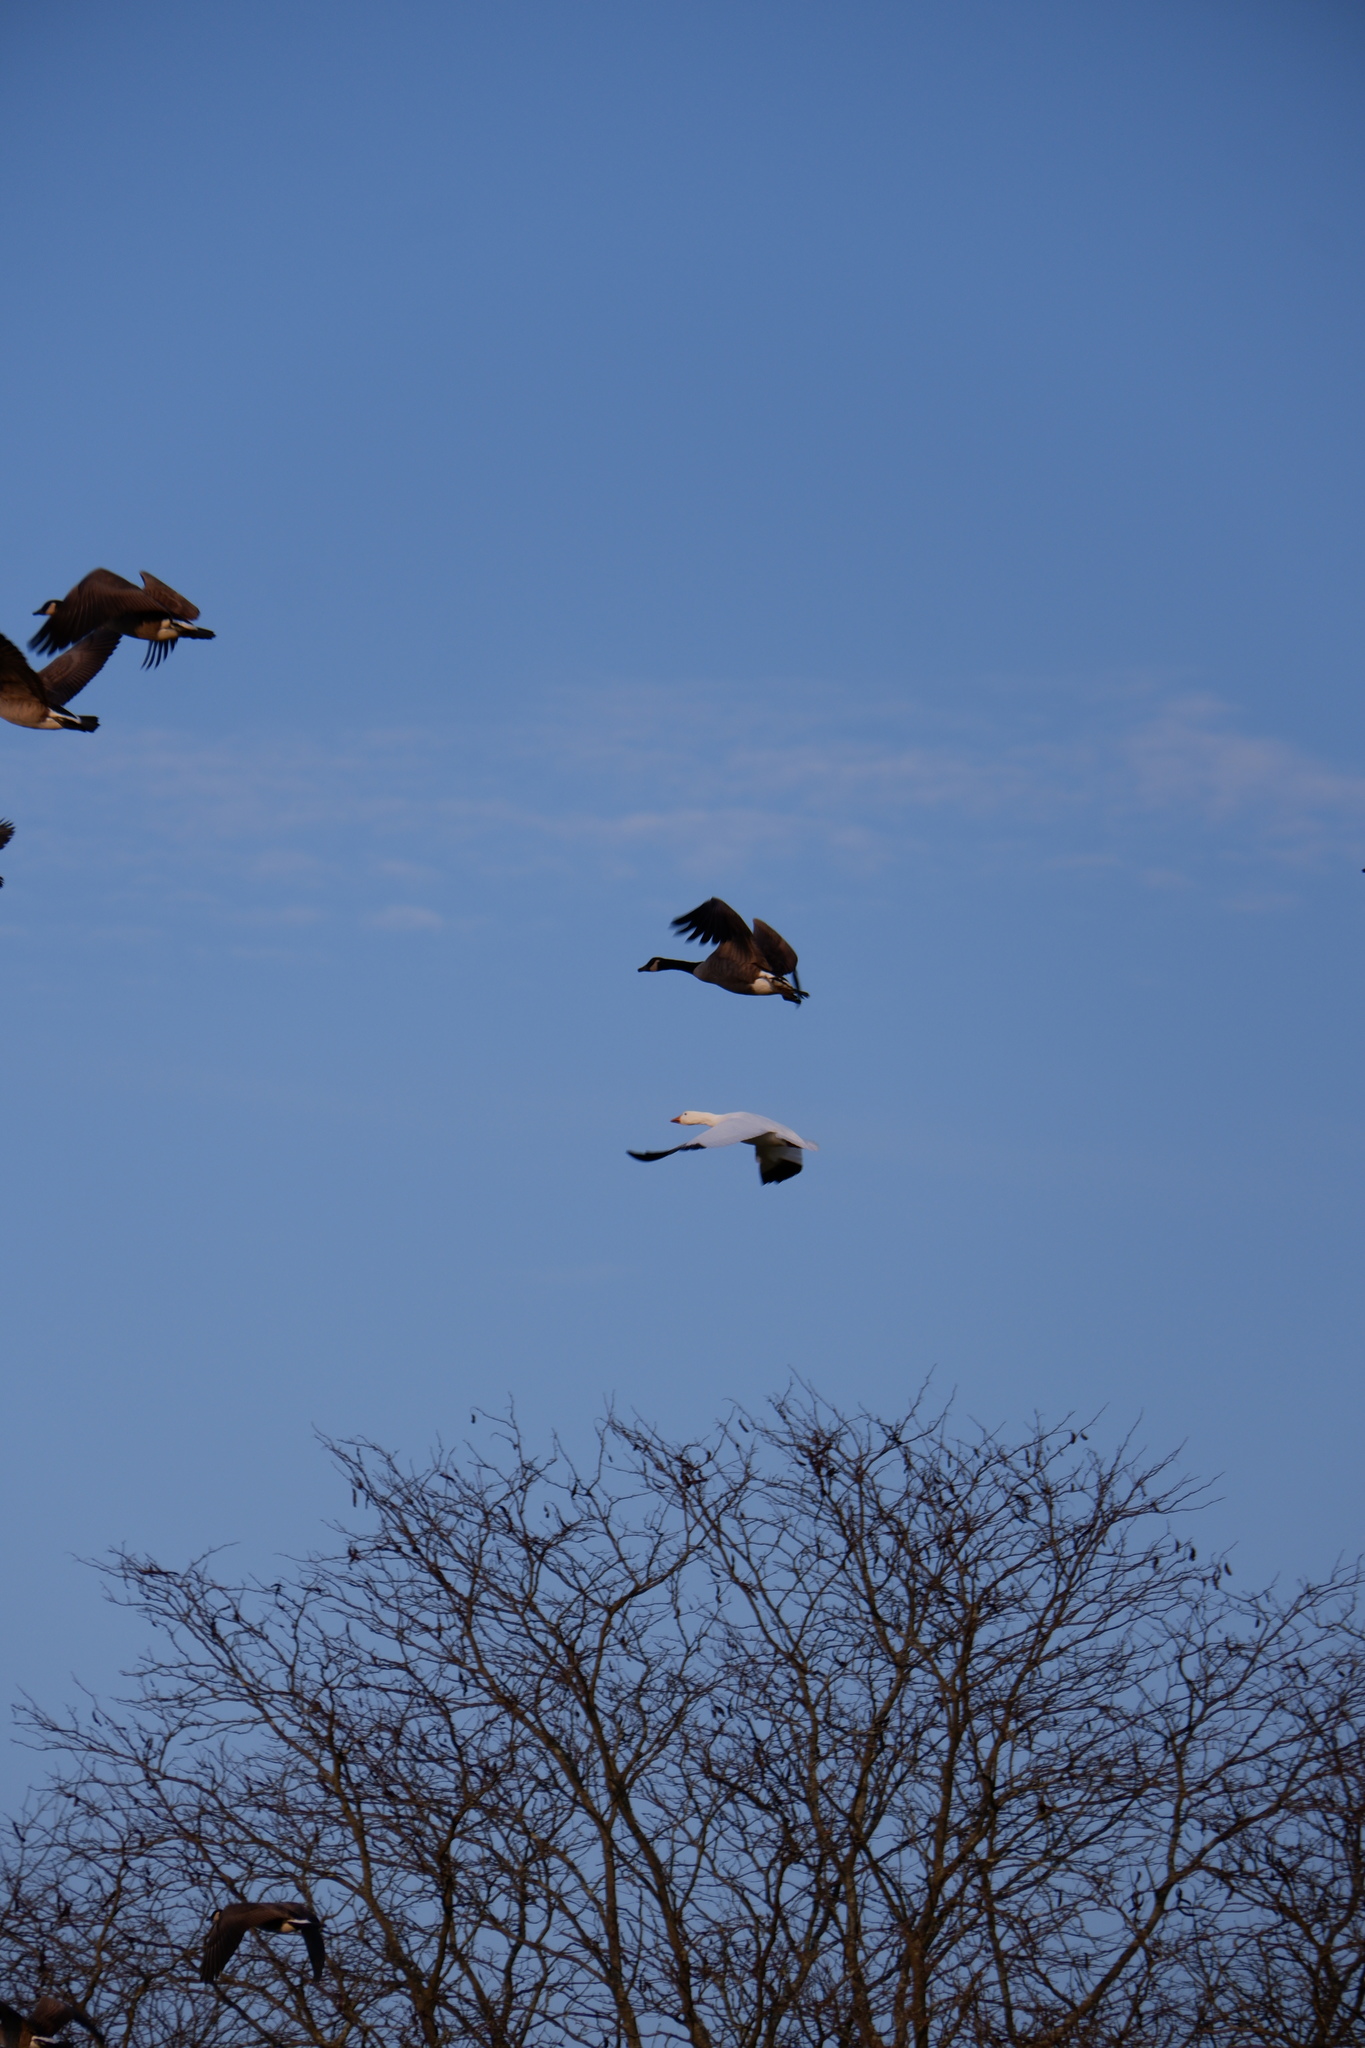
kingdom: Animalia
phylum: Chordata
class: Aves
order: Anseriformes
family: Anatidae
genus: Anser
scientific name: Anser caerulescens
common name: Snow goose
